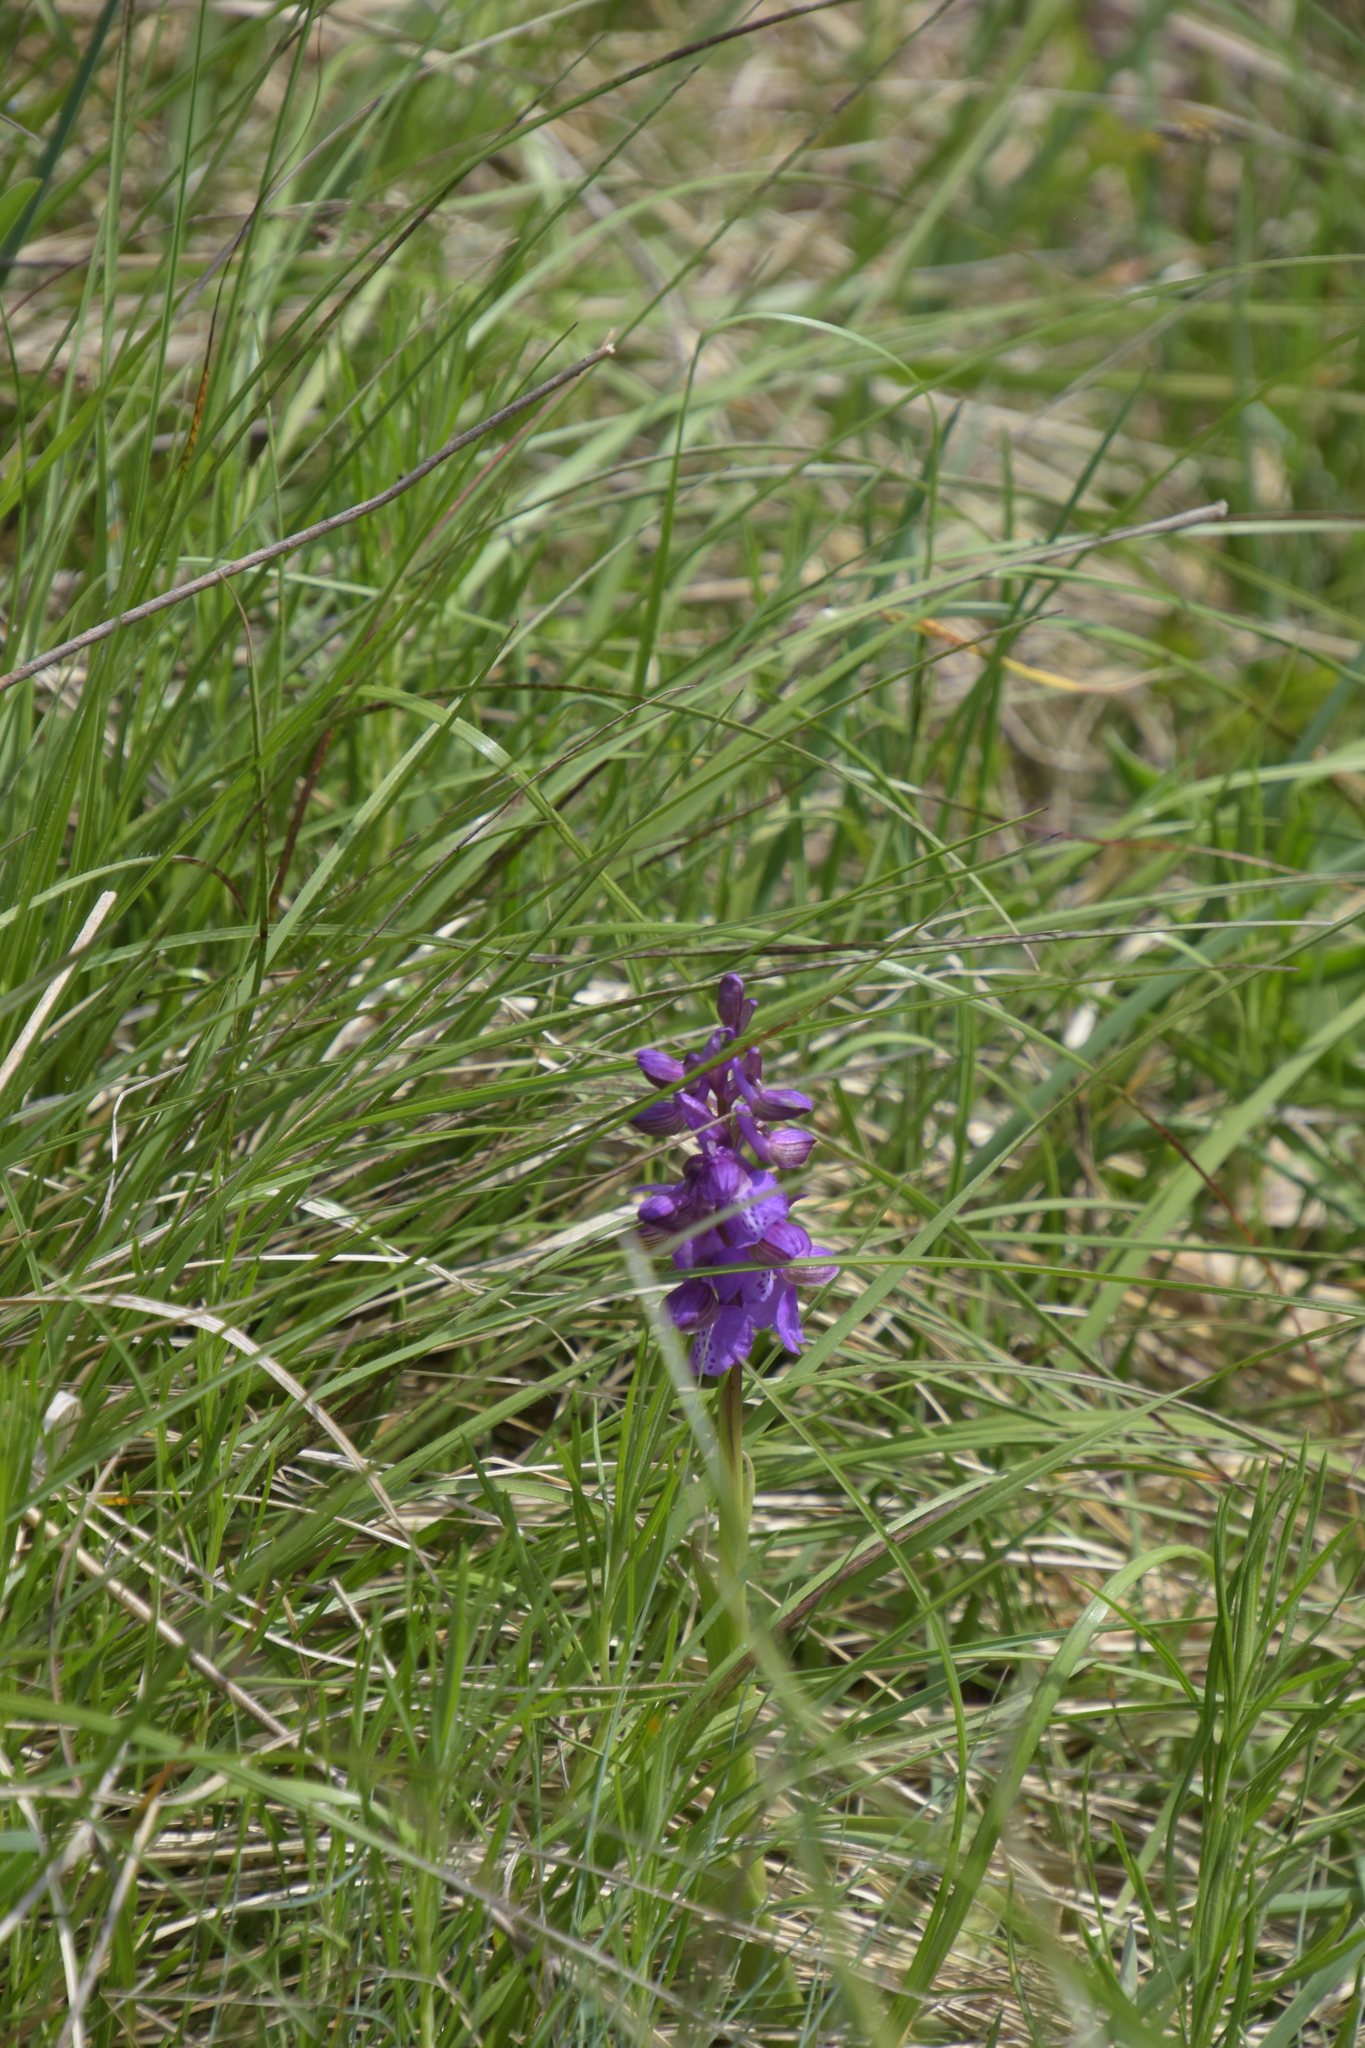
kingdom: Plantae
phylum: Tracheophyta
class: Liliopsida
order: Asparagales
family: Orchidaceae
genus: Anacamptis
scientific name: Anacamptis morio
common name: Green-winged orchid
